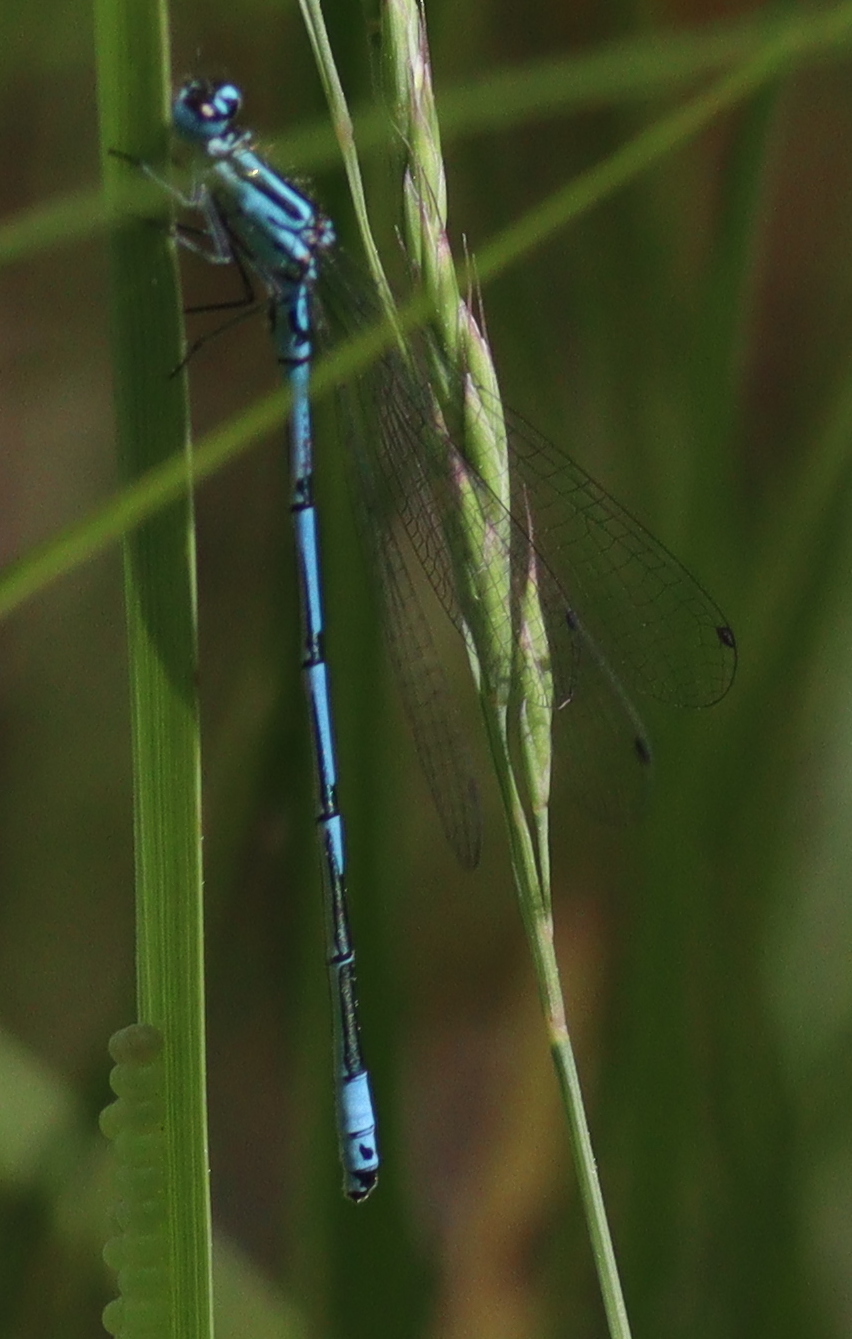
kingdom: Animalia
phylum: Arthropoda
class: Insecta
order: Odonata
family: Coenagrionidae
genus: Coenagrion
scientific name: Coenagrion puella
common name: Azure damselfly
